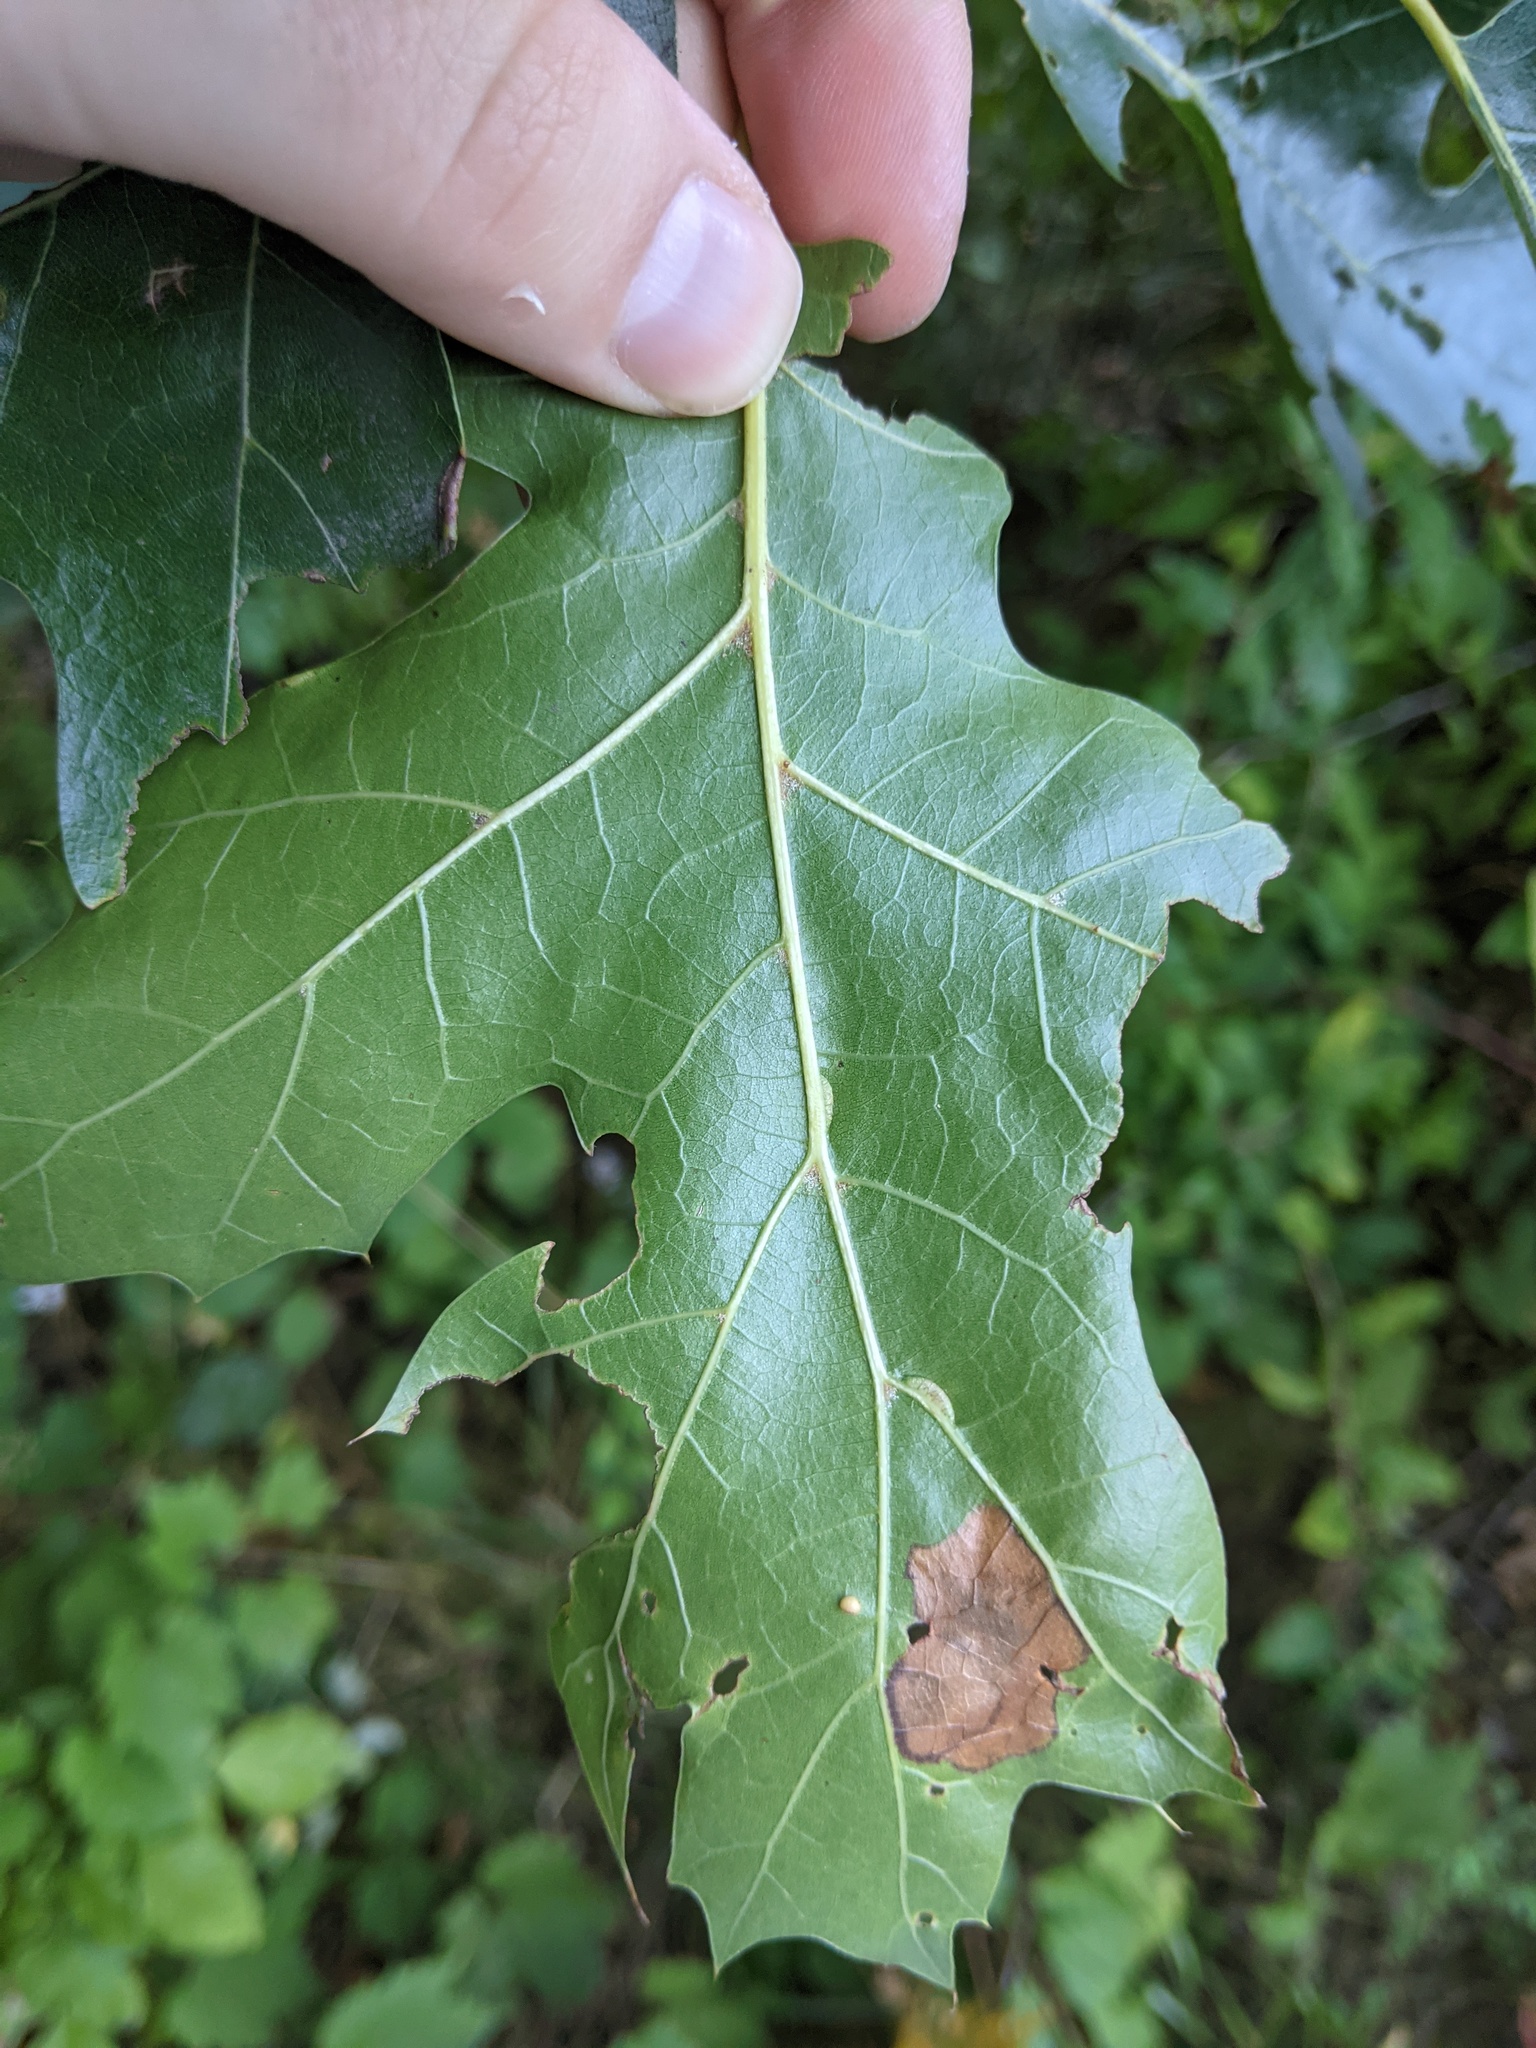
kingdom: Animalia
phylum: Arthropoda
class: Insecta
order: Diptera
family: Cecidomyiidae
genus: Macrodiplosis
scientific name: Macrodiplosis q-orucum
